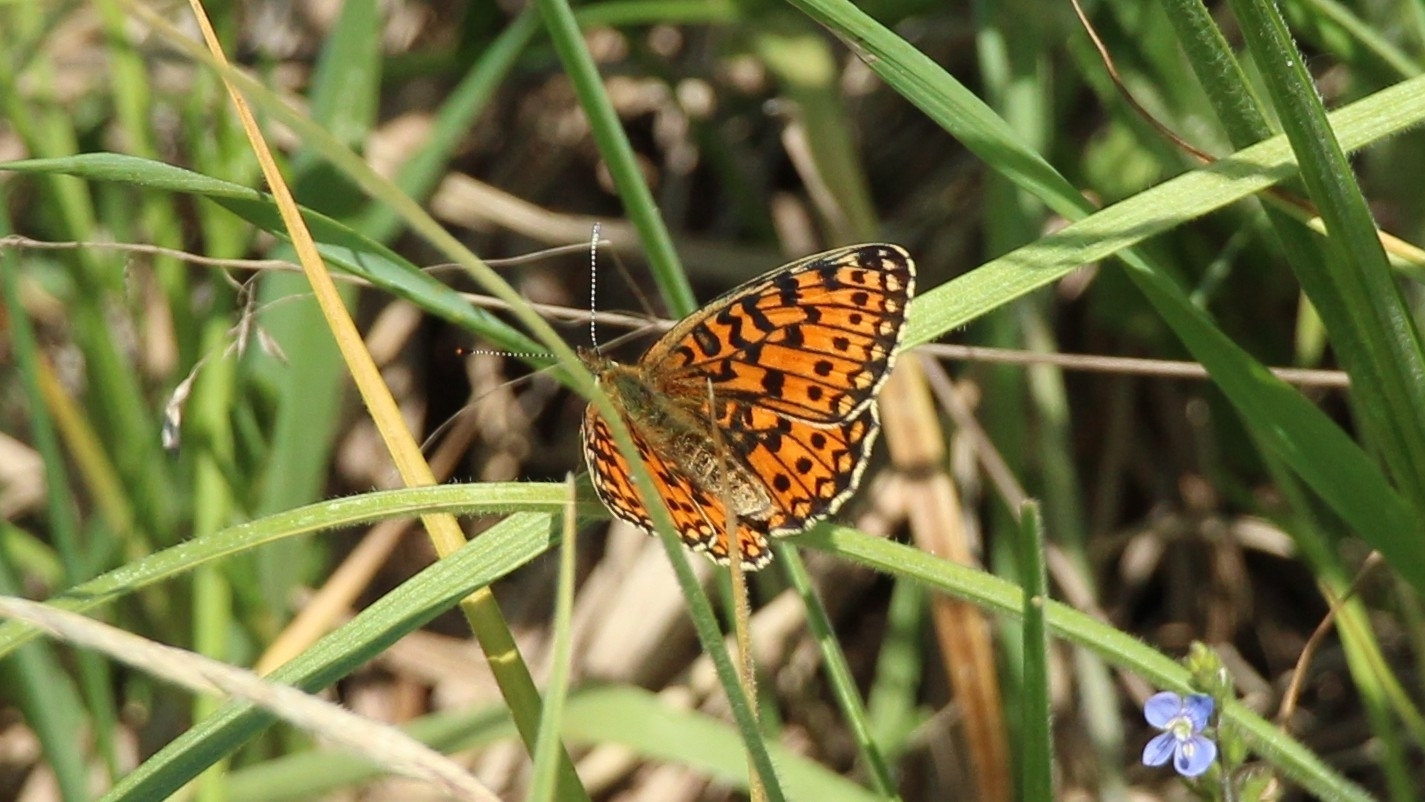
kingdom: Animalia
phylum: Arthropoda
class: Insecta
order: Lepidoptera
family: Nymphalidae
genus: Boloria
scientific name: Boloria selene
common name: Small pearl-bordered fritillary
